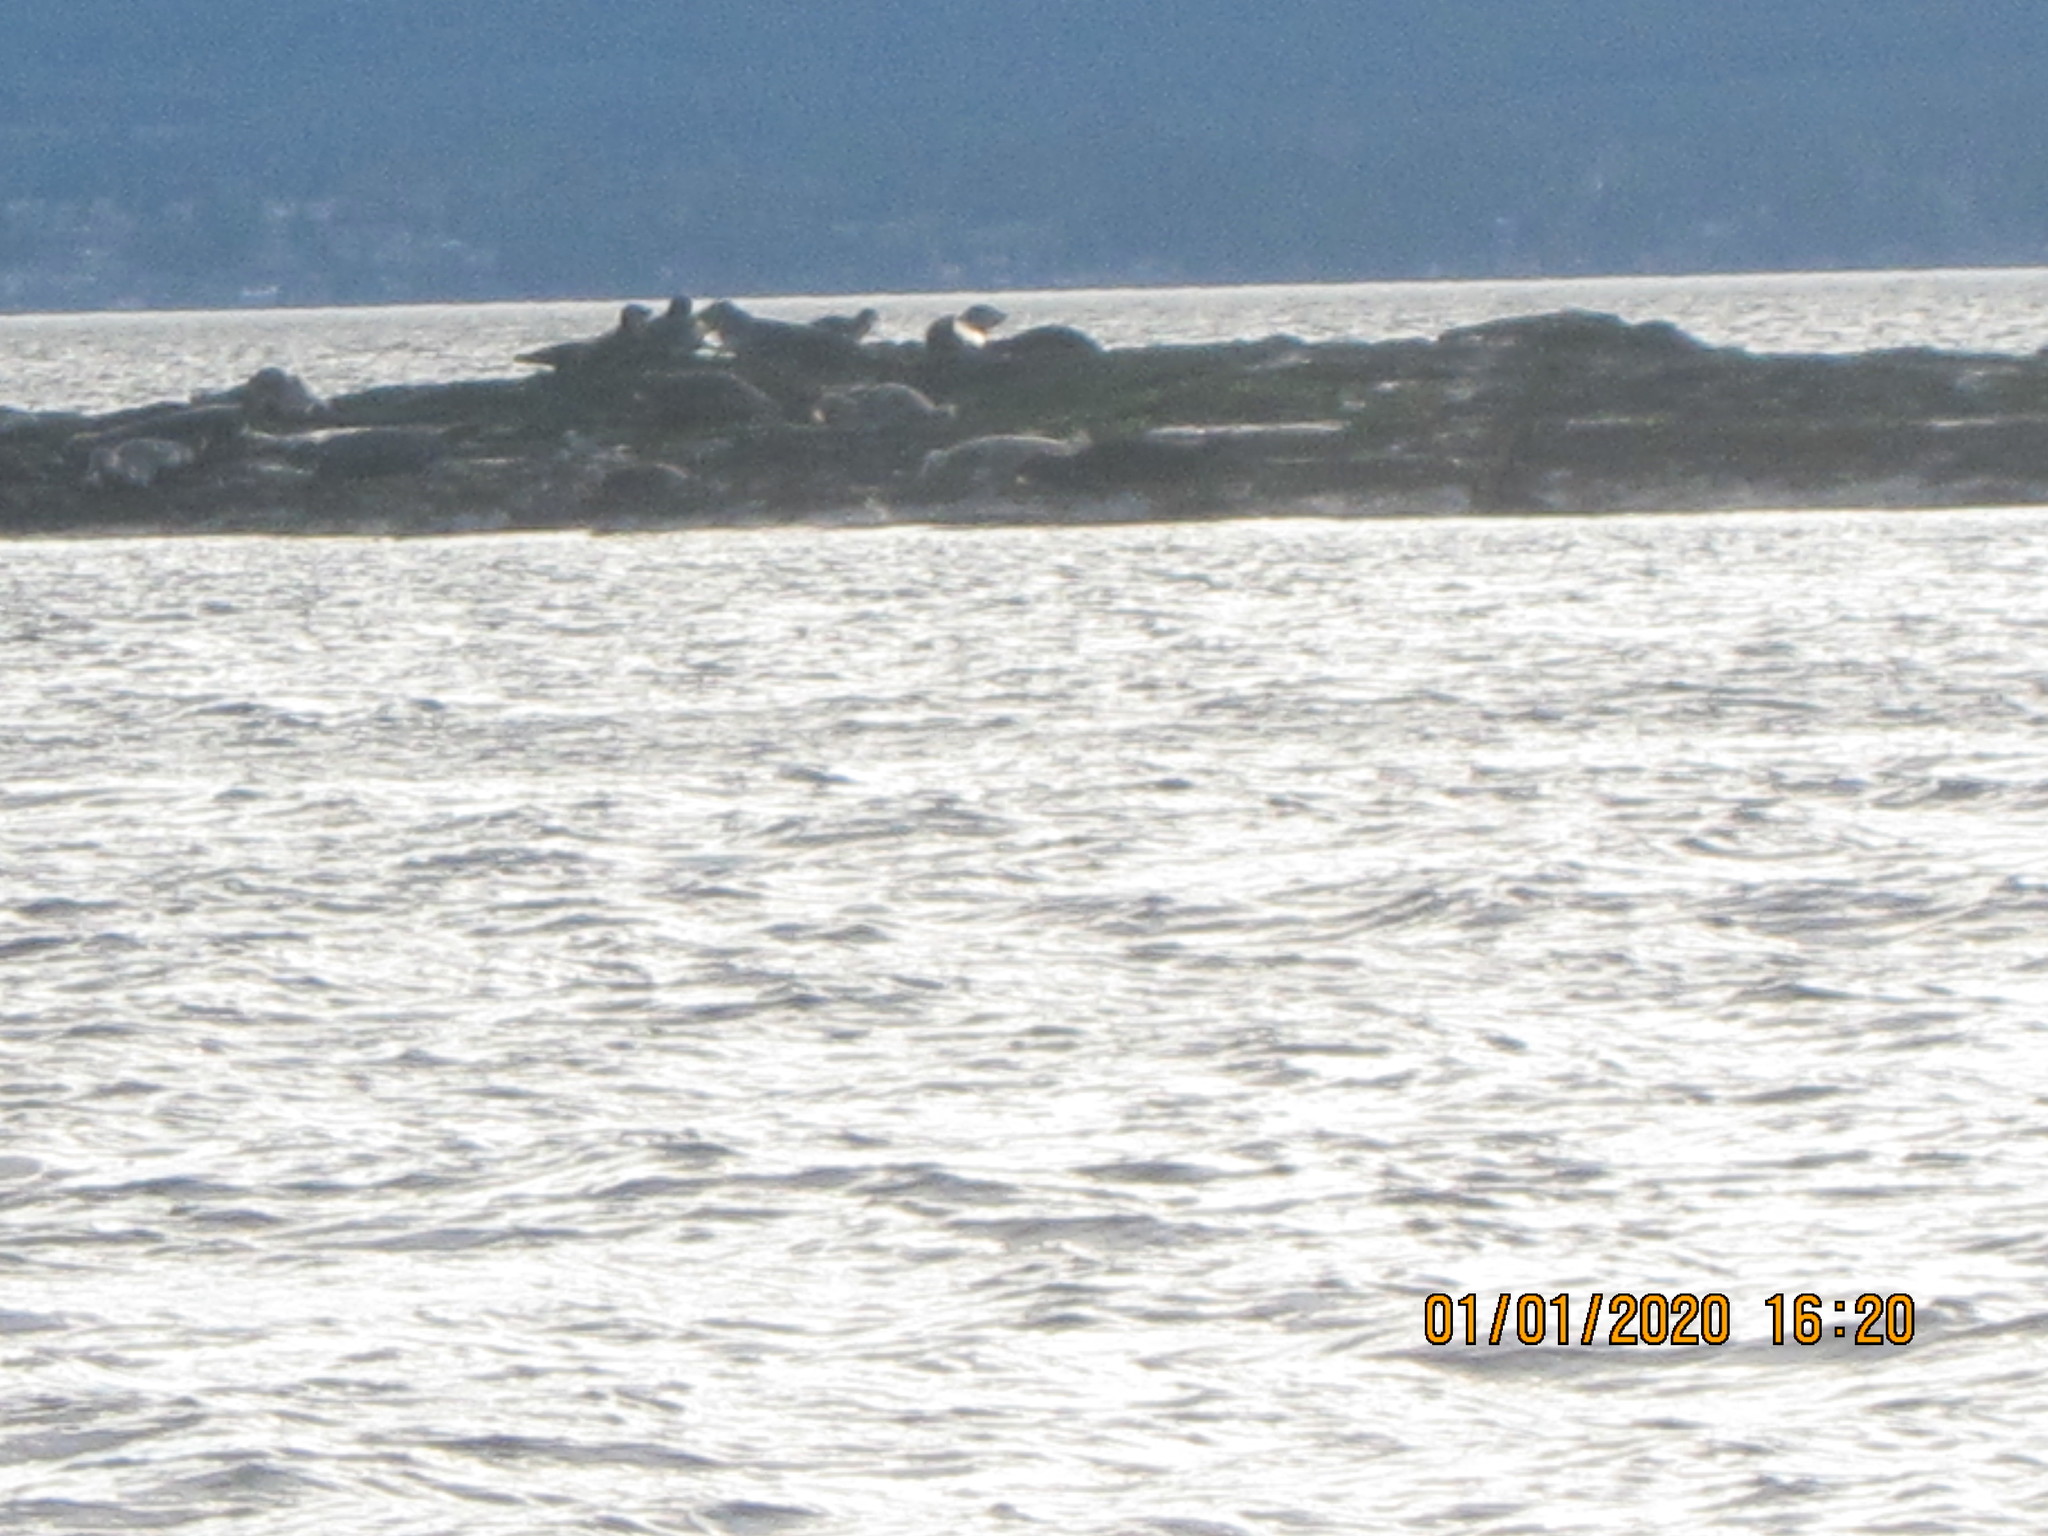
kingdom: Animalia
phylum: Chordata
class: Mammalia
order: Carnivora
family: Phocidae
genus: Phoca
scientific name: Phoca vitulina
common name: Harbor seal
